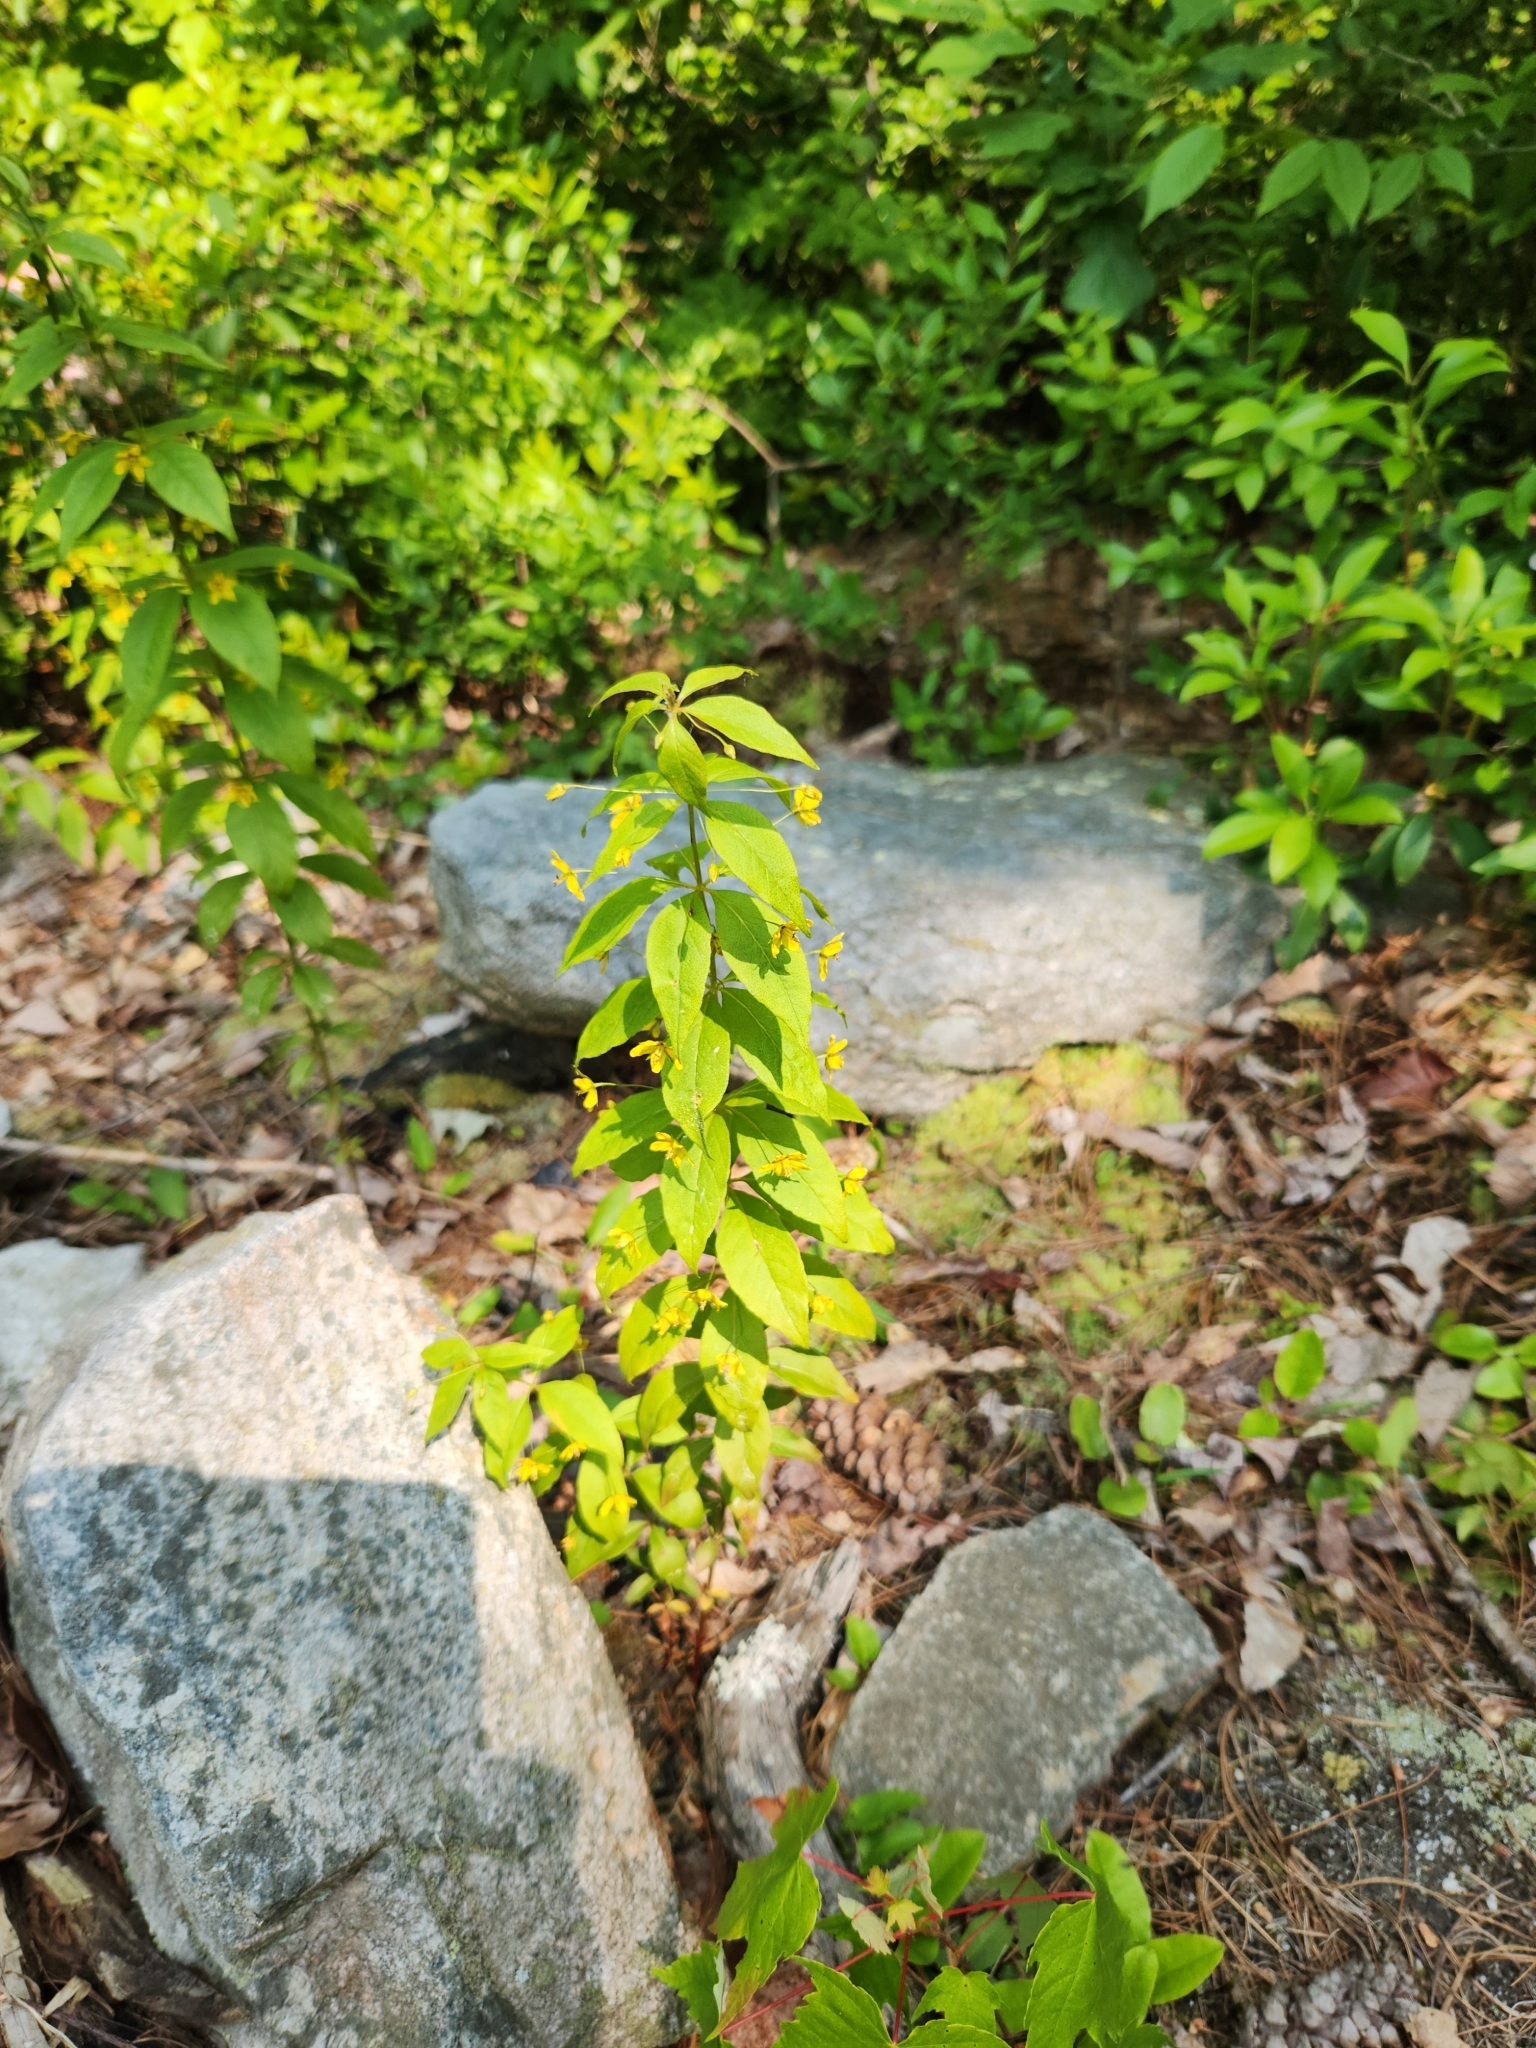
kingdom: Plantae
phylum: Tracheophyta
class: Magnoliopsida
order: Ericales
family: Primulaceae
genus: Lysimachia
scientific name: Lysimachia quadrifolia
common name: Whorled loosestrife
